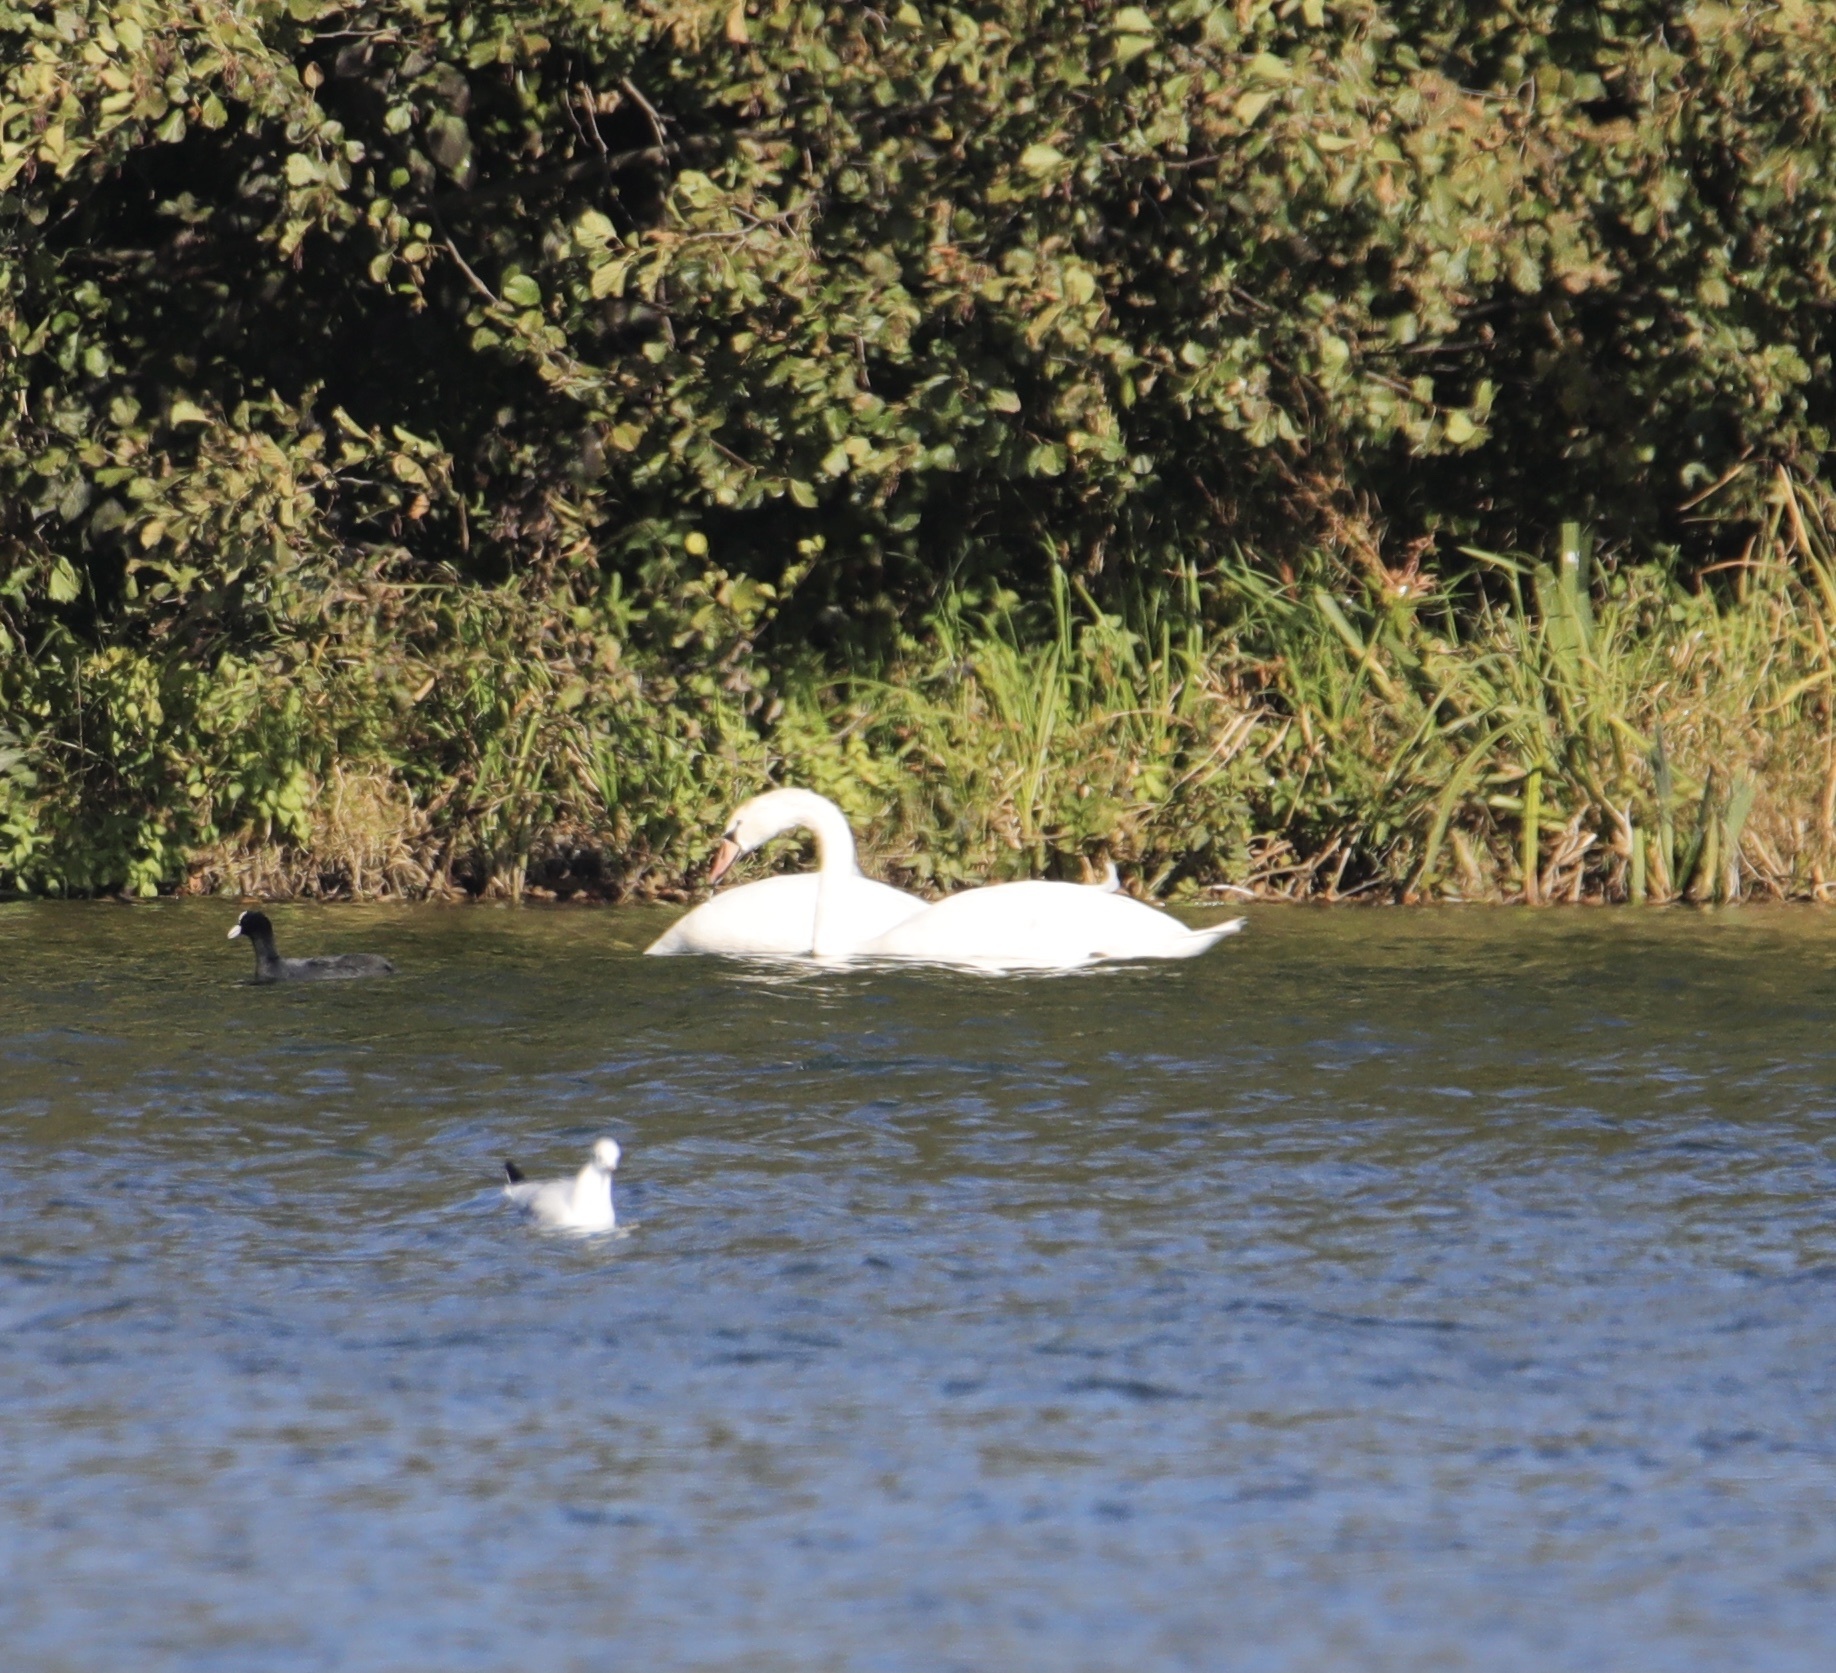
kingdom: Animalia
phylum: Chordata
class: Aves
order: Anseriformes
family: Anatidae
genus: Cygnus
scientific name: Cygnus olor
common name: Mute swan
